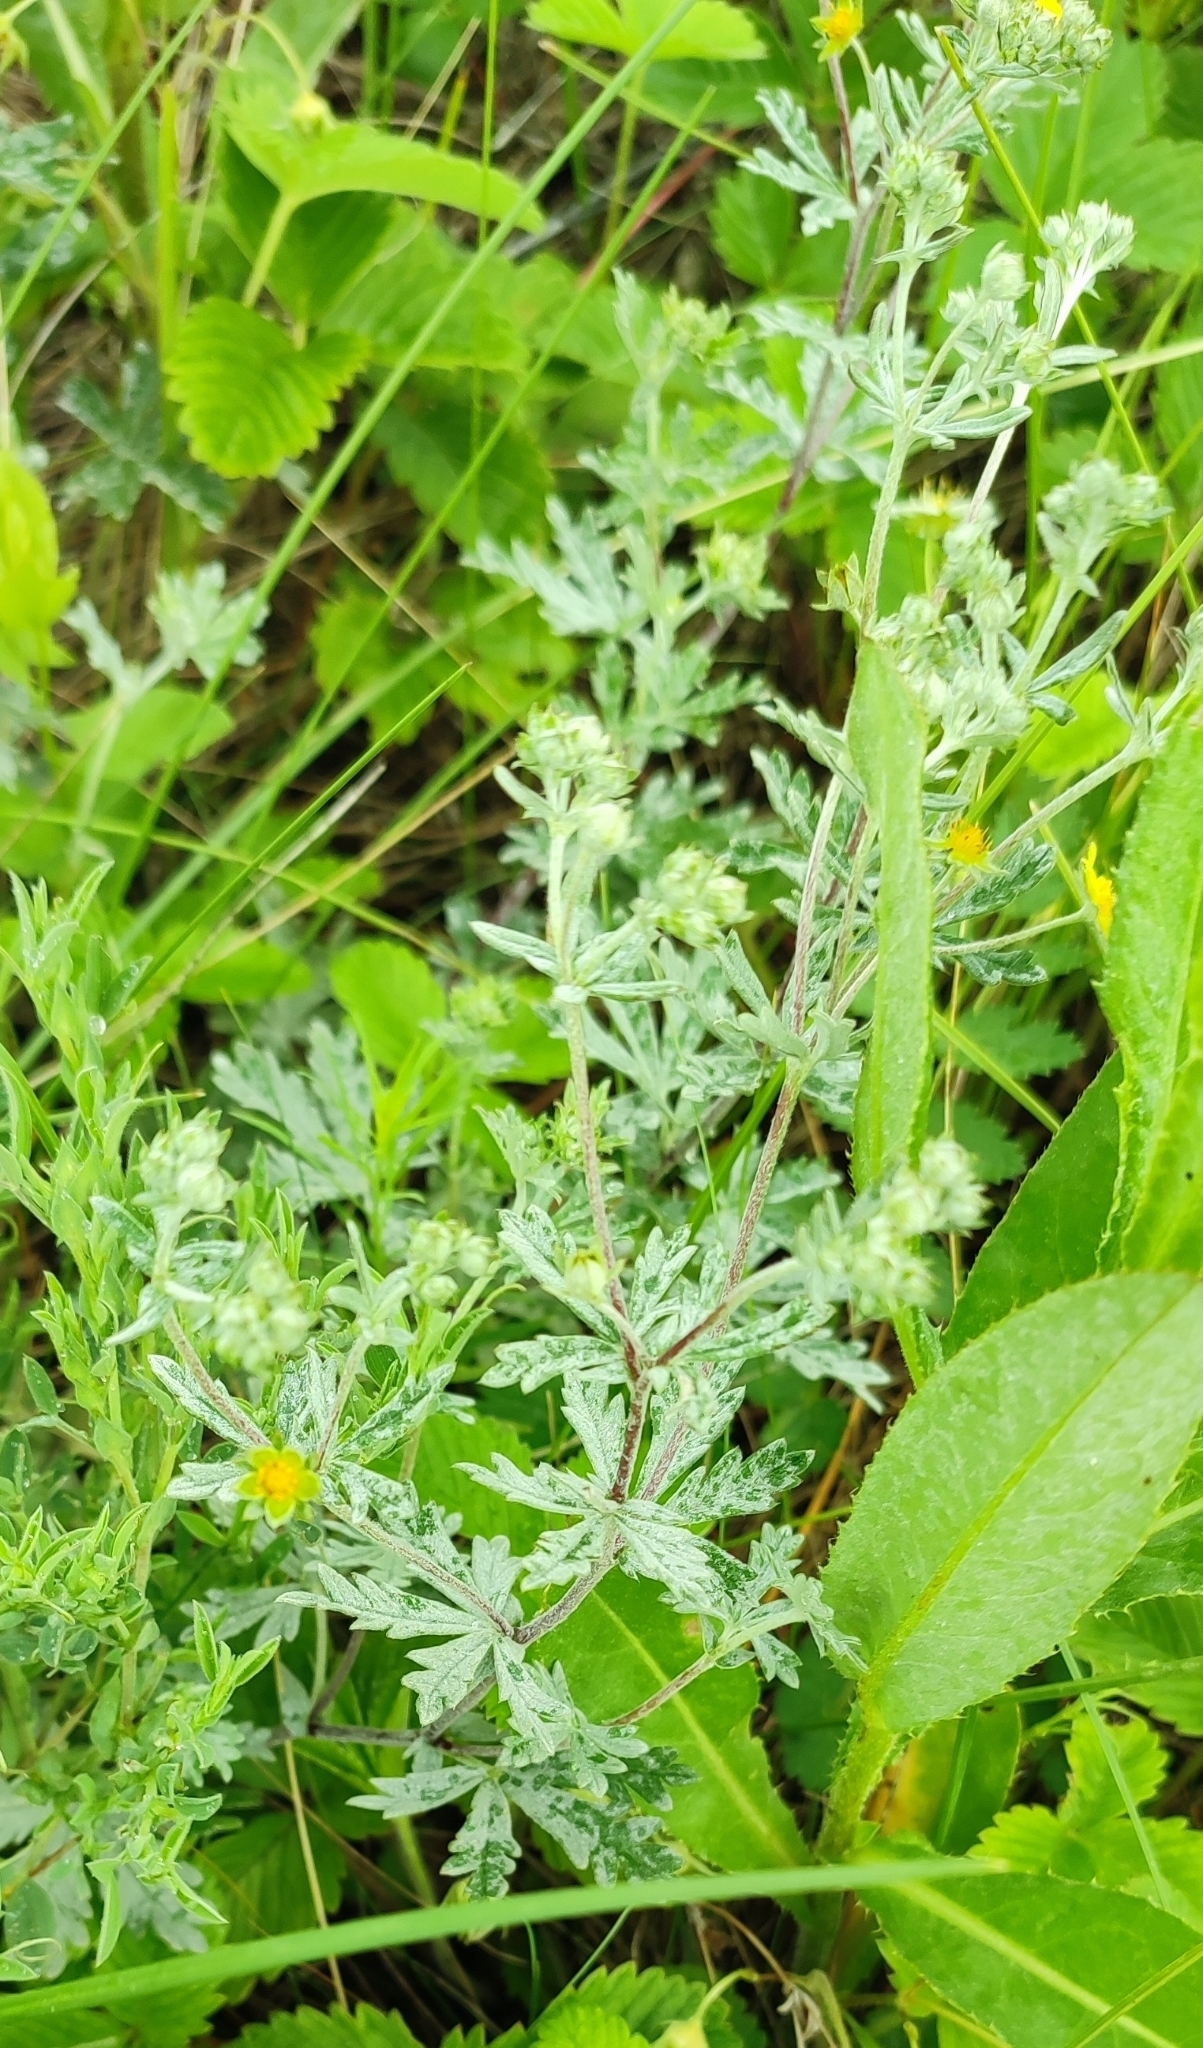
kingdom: Plantae
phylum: Tracheophyta
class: Magnoliopsida
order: Rosales
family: Rosaceae
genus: Potentilla
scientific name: Potentilla argentea
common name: Hoary cinquefoil
